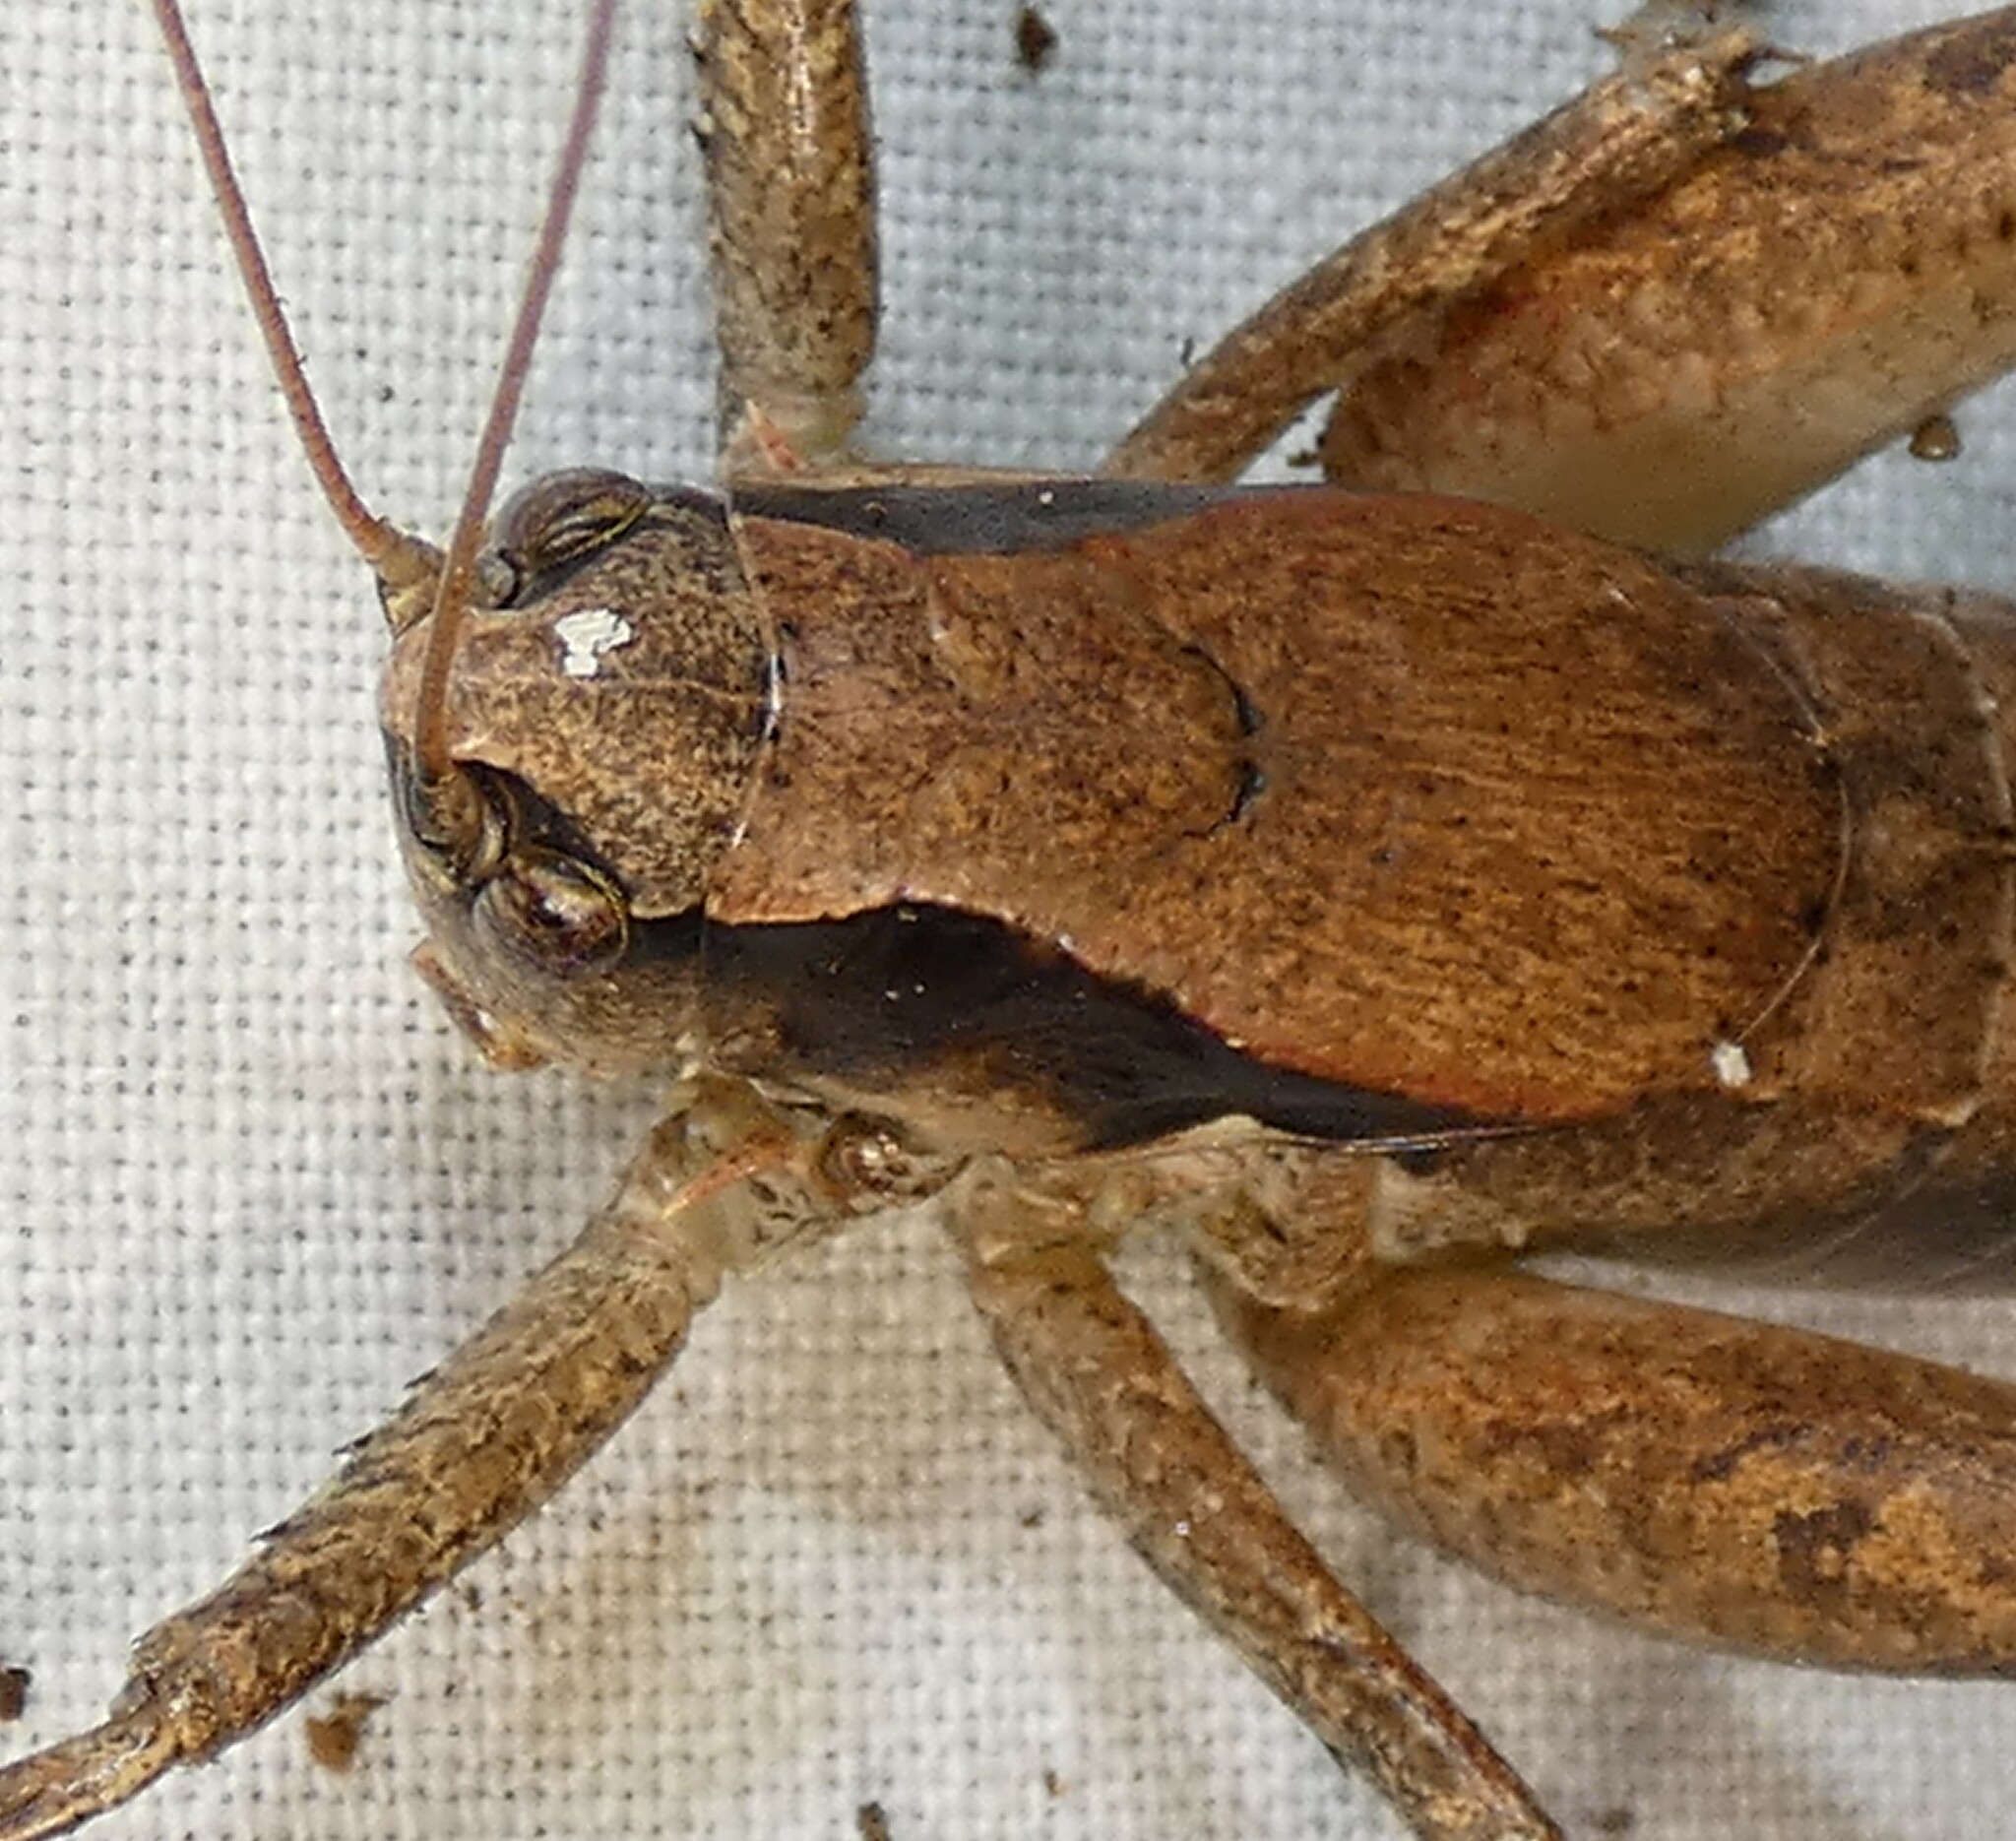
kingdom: Animalia
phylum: Arthropoda
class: Insecta
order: Orthoptera
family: Tettigoniidae
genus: Atlanticus
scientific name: Atlanticus gibbosus
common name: Robust shield-bearer
